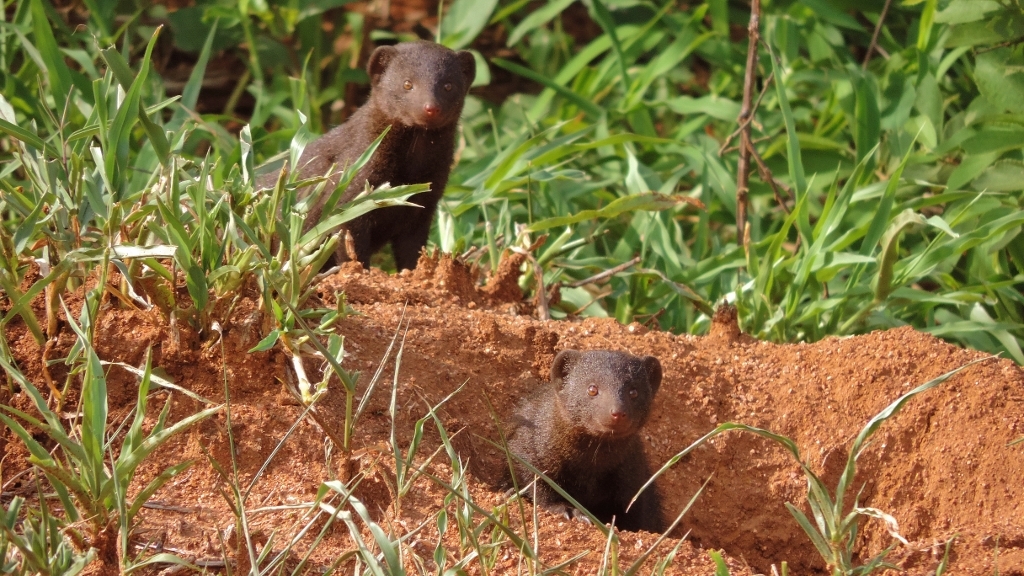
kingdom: Animalia
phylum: Chordata
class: Mammalia
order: Carnivora
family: Herpestidae
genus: Helogale
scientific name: Helogale parvula
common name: Common dwarf mongoose
